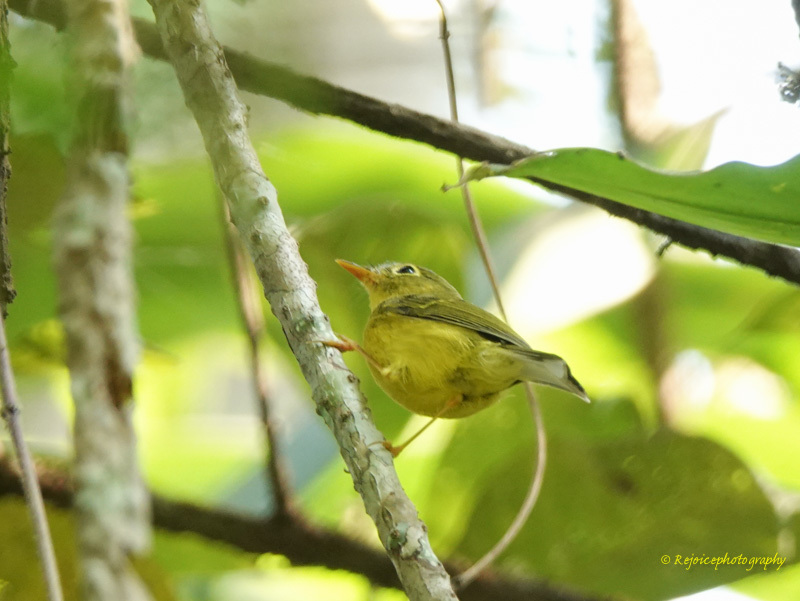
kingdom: Animalia
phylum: Chordata
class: Aves
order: Passeriformes
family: Phylloscopidae
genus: Seicercus
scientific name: Seicercus burkii
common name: Green-crowned warbler
